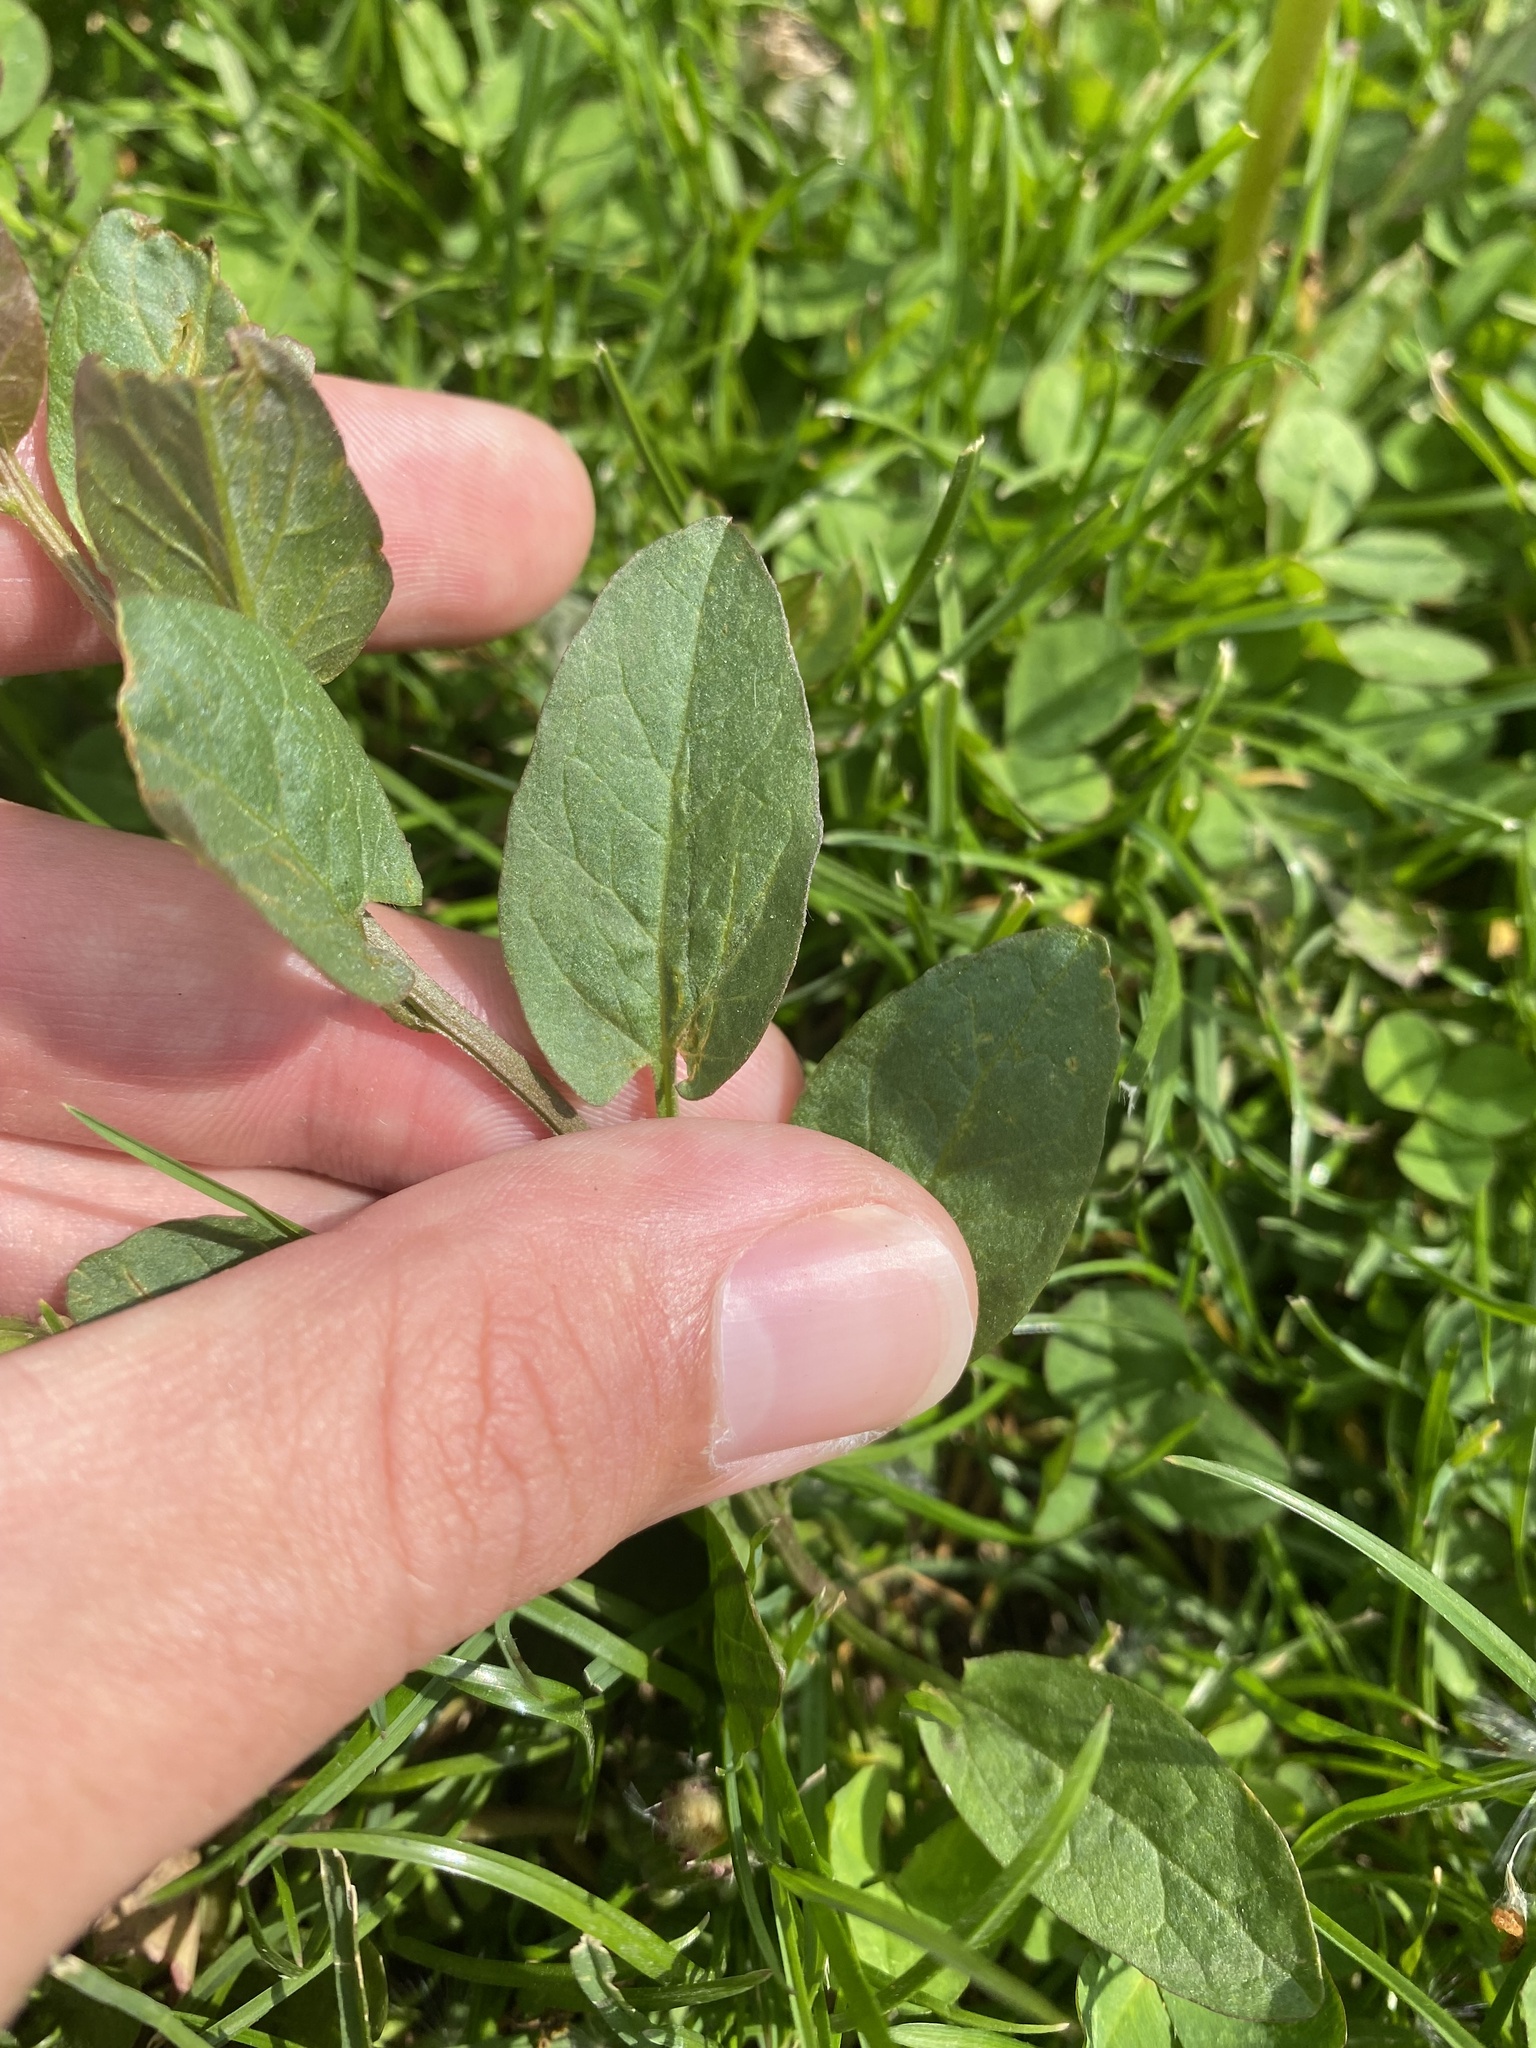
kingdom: Plantae
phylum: Tracheophyta
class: Magnoliopsida
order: Solanales
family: Convolvulaceae
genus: Convolvulus
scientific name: Convolvulus arvensis
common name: Field bindweed
